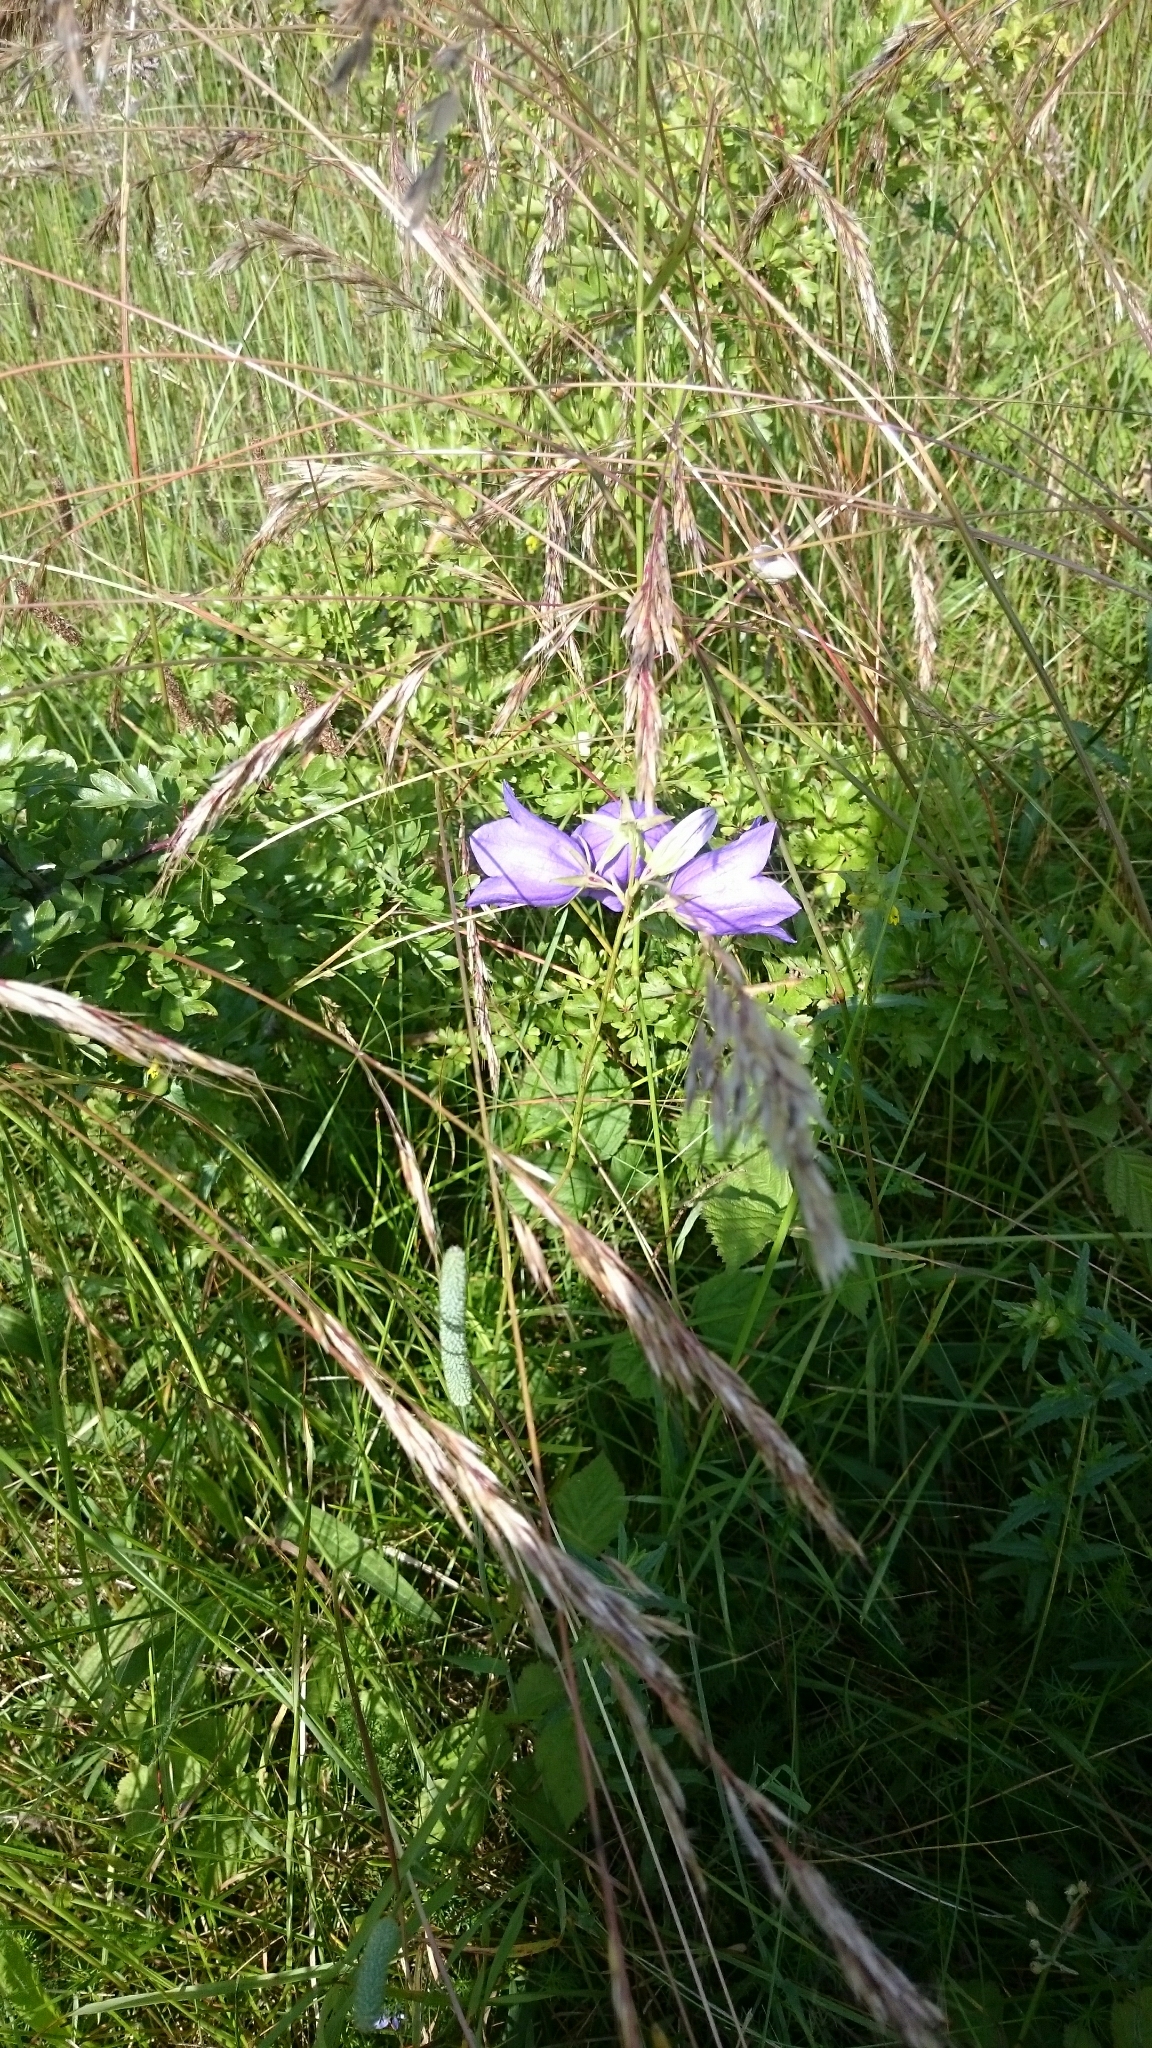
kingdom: Plantae
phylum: Tracheophyta
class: Magnoliopsida
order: Asterales
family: Campanulaceae
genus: Campanula
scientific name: Campanula persicifolia
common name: Peach-leaved bellflower
